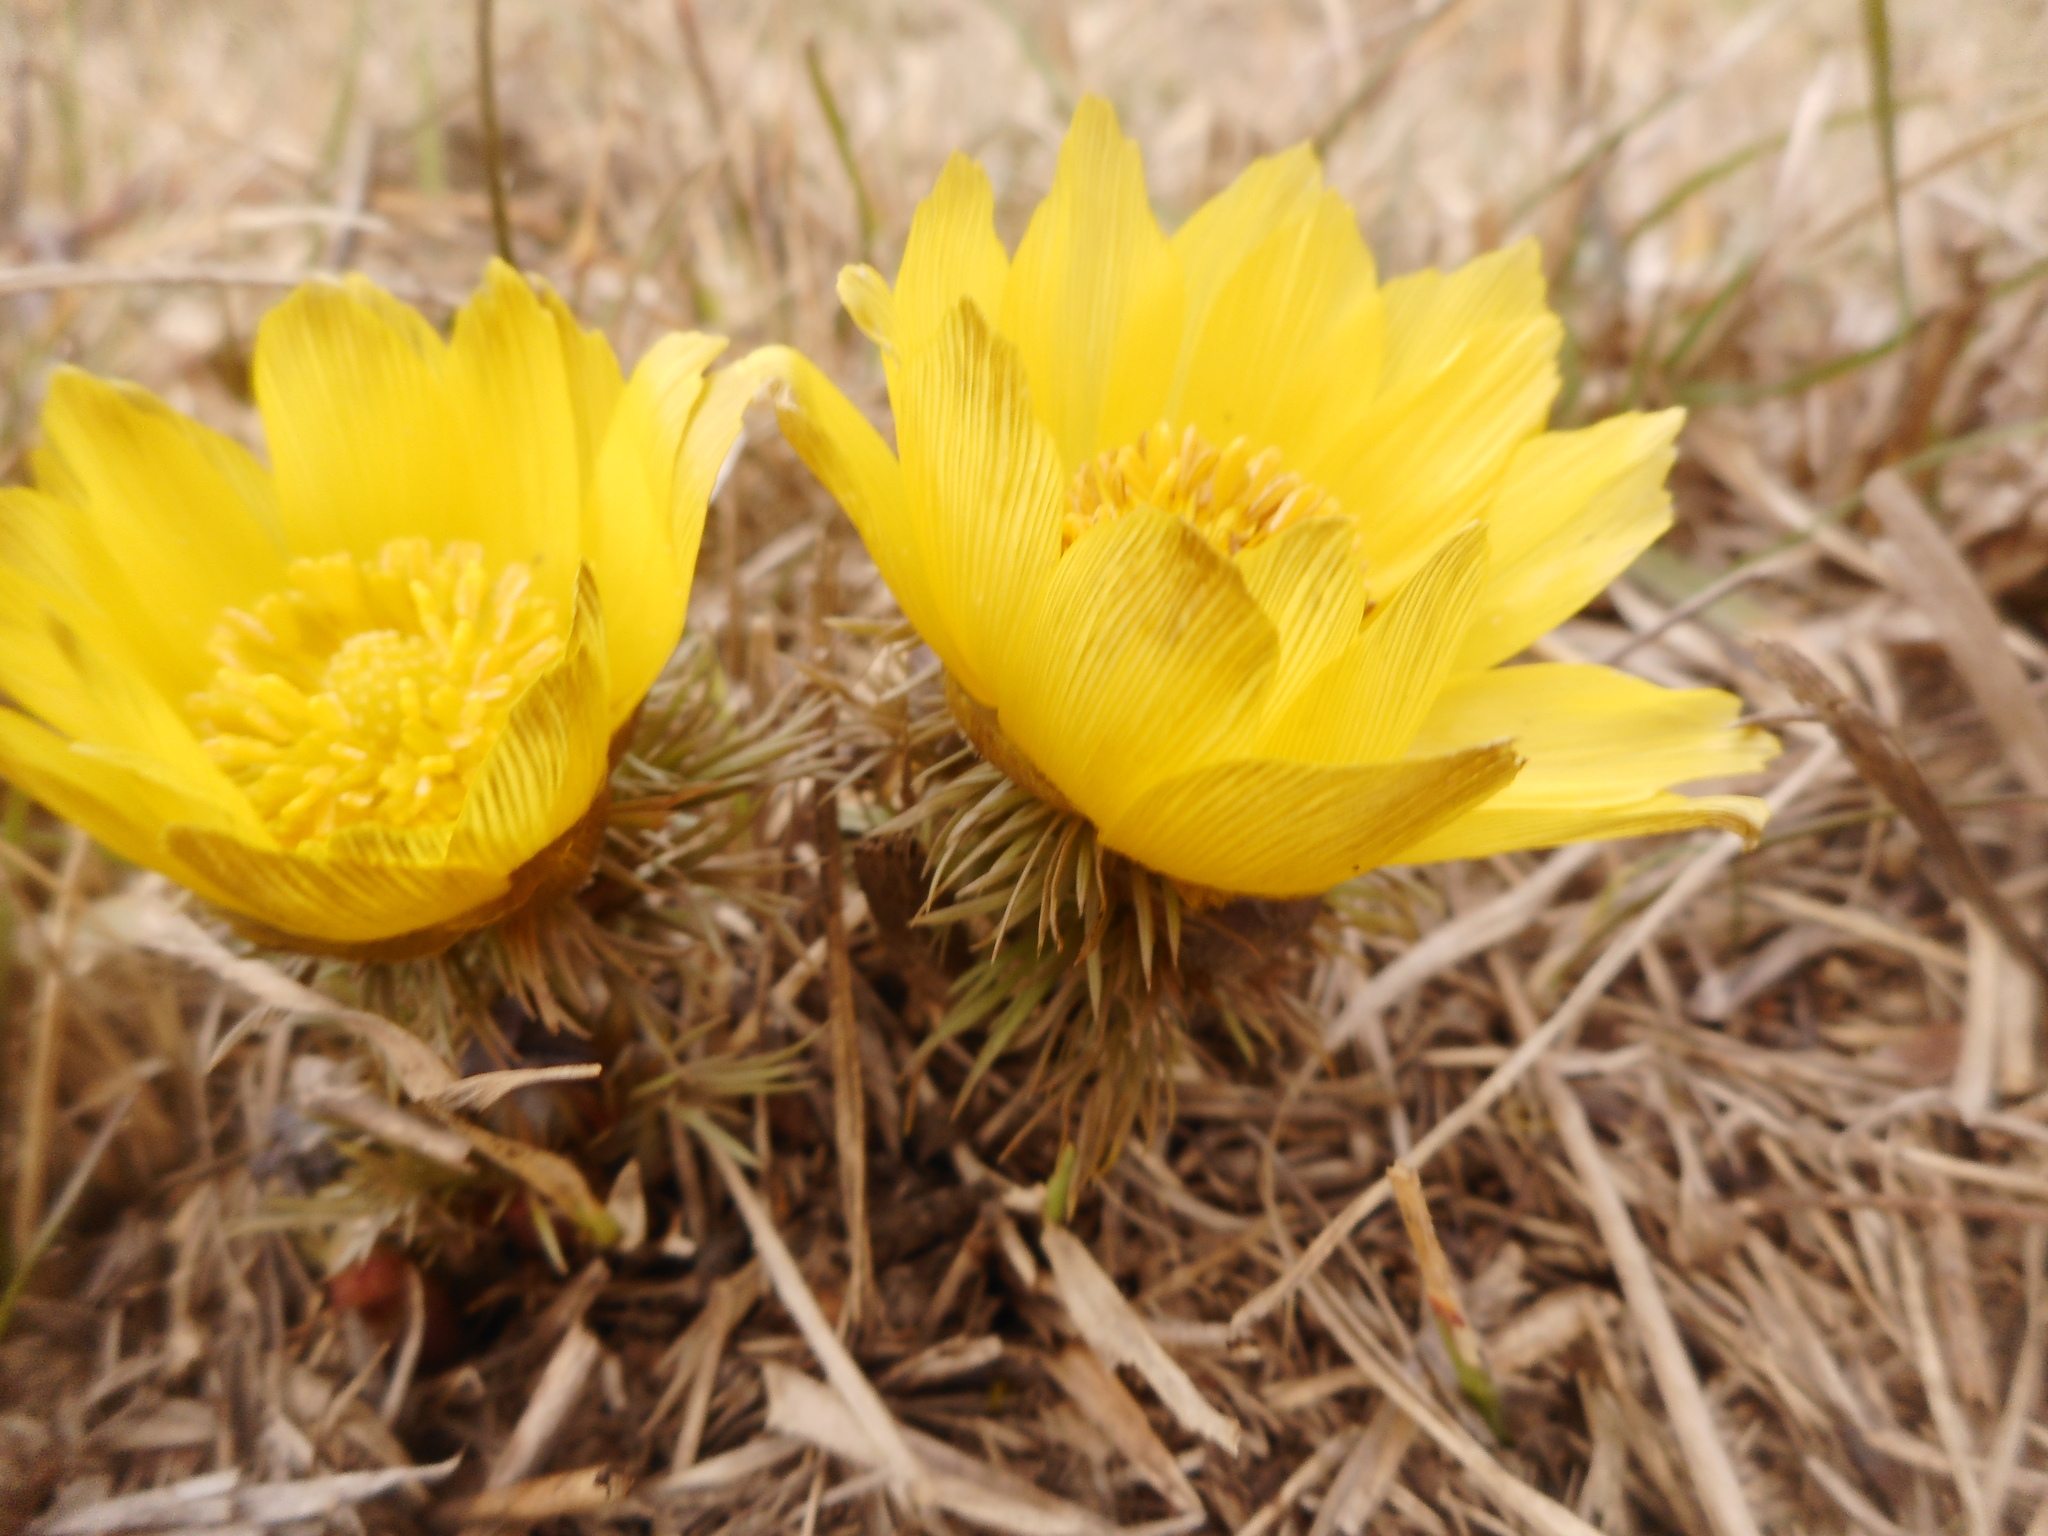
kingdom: Plantae
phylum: Tracheophyta
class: Magnoliopsida
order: Ranunculales
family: Ranunculaceae
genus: Adonis
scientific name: Adonis vernalis
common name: Yellow pheasants-eye
